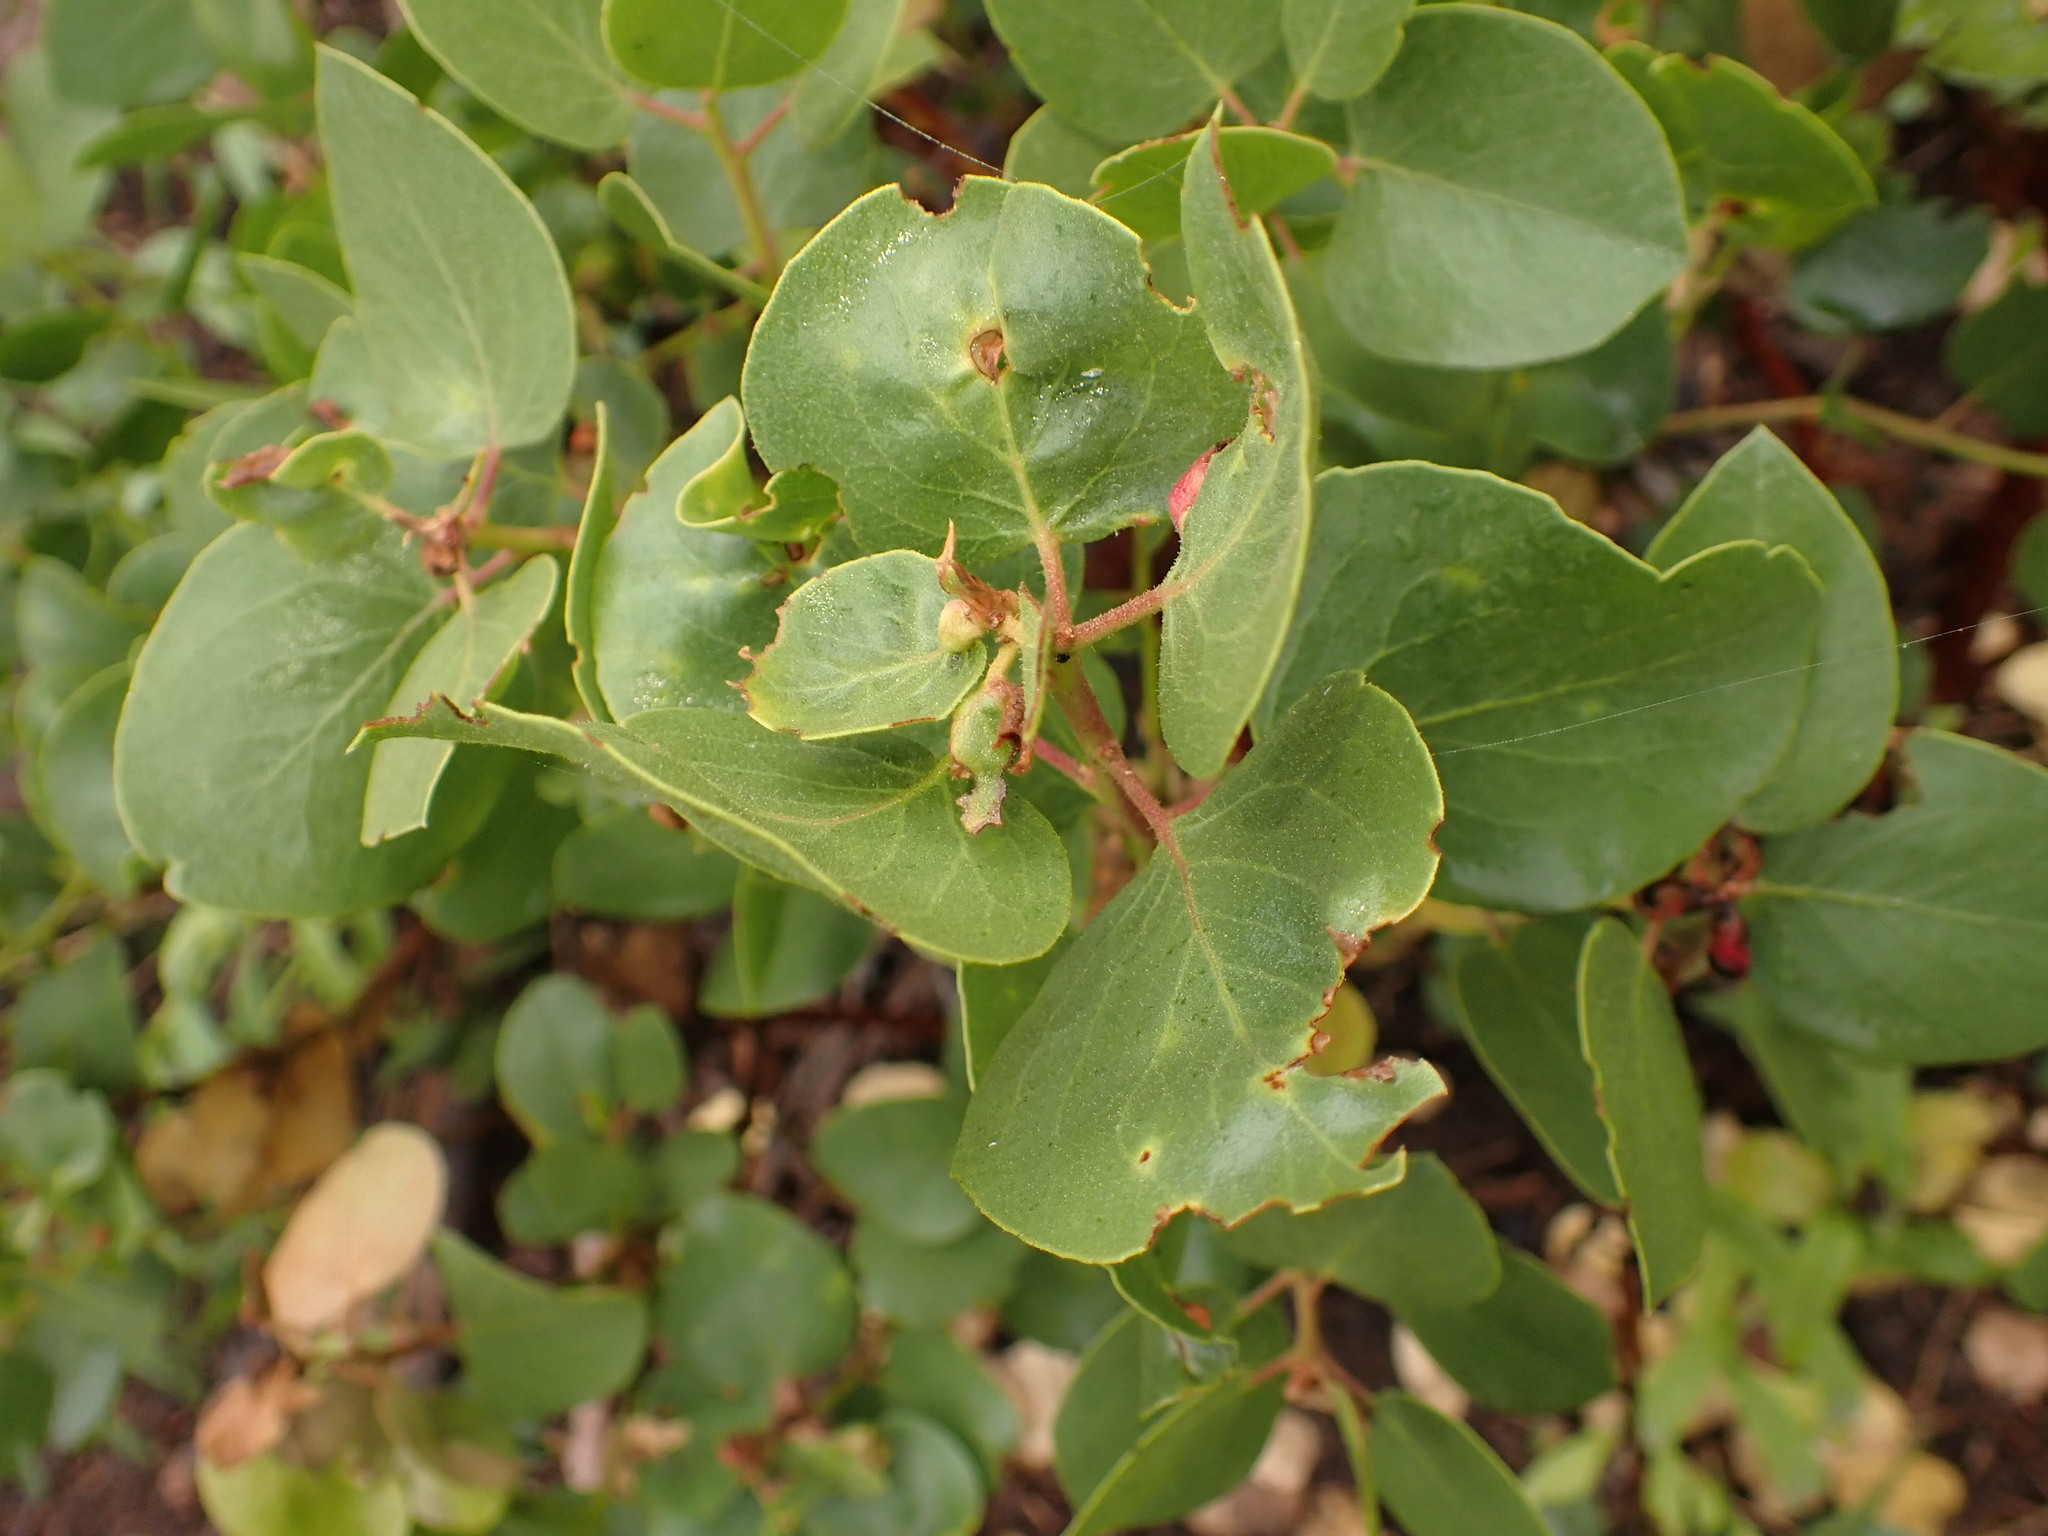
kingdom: Plantae
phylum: Tracheophyta
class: Magnoliopsida
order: Ericales
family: Ericaceae
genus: Arctostaphylos
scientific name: Arctostaphylos patula
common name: Green-leaf manzanita
